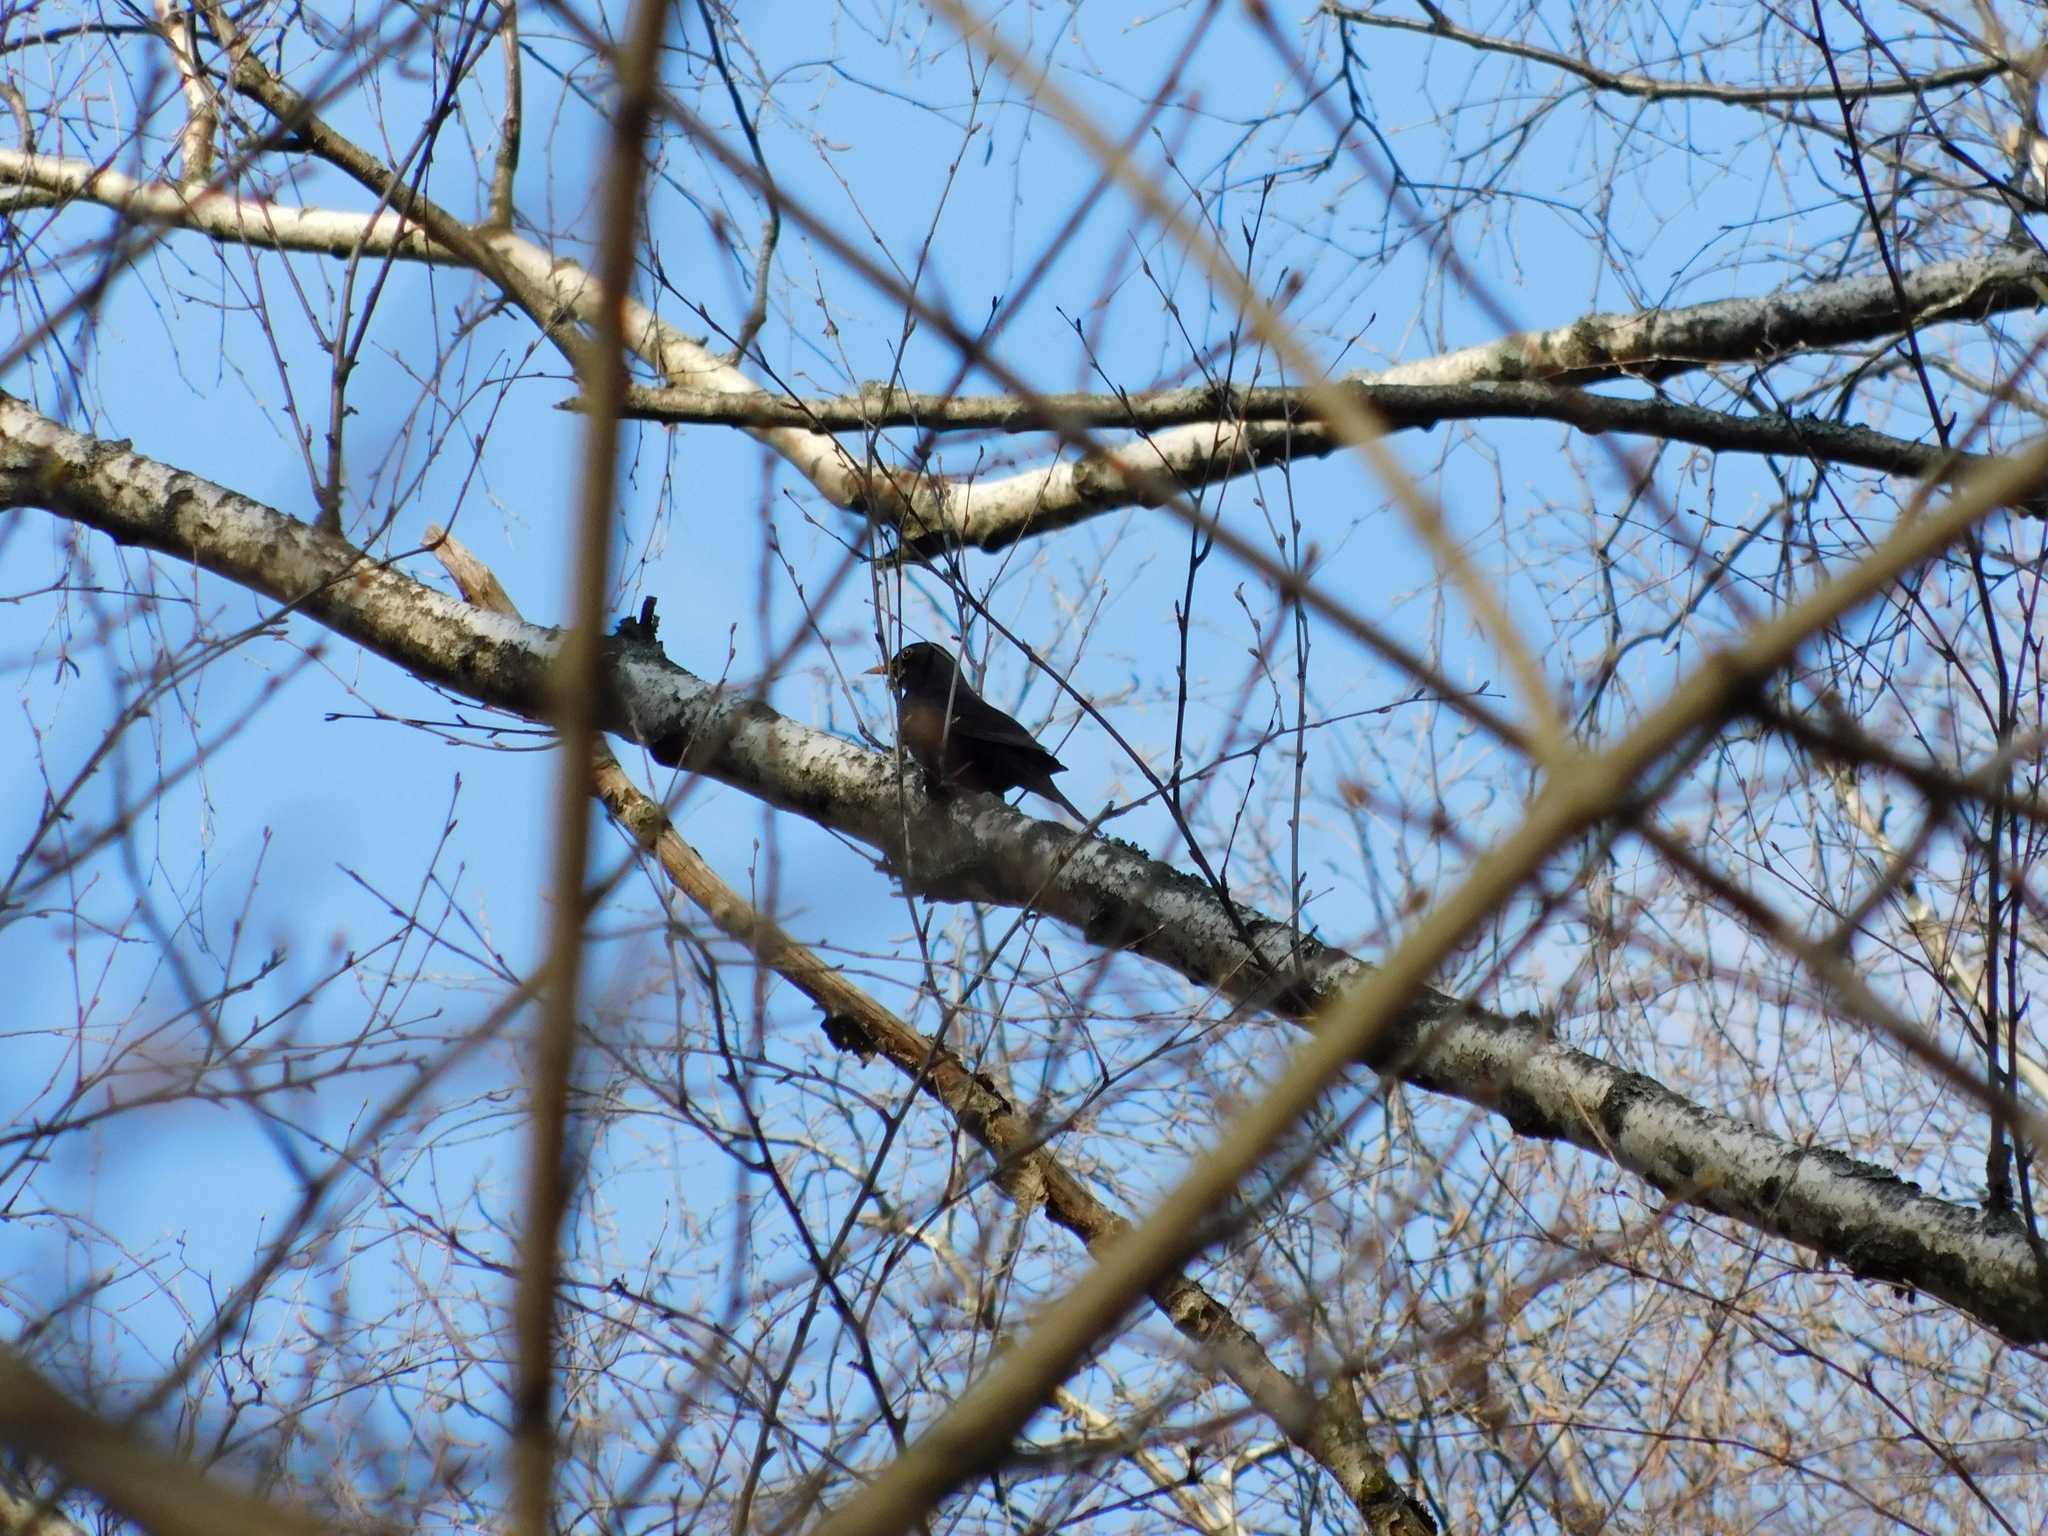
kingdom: Animalia
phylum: Chordata
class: Aves
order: Passeriformes
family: Turdidae
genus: Turdus
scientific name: Turdus merula
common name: Common blackbird
